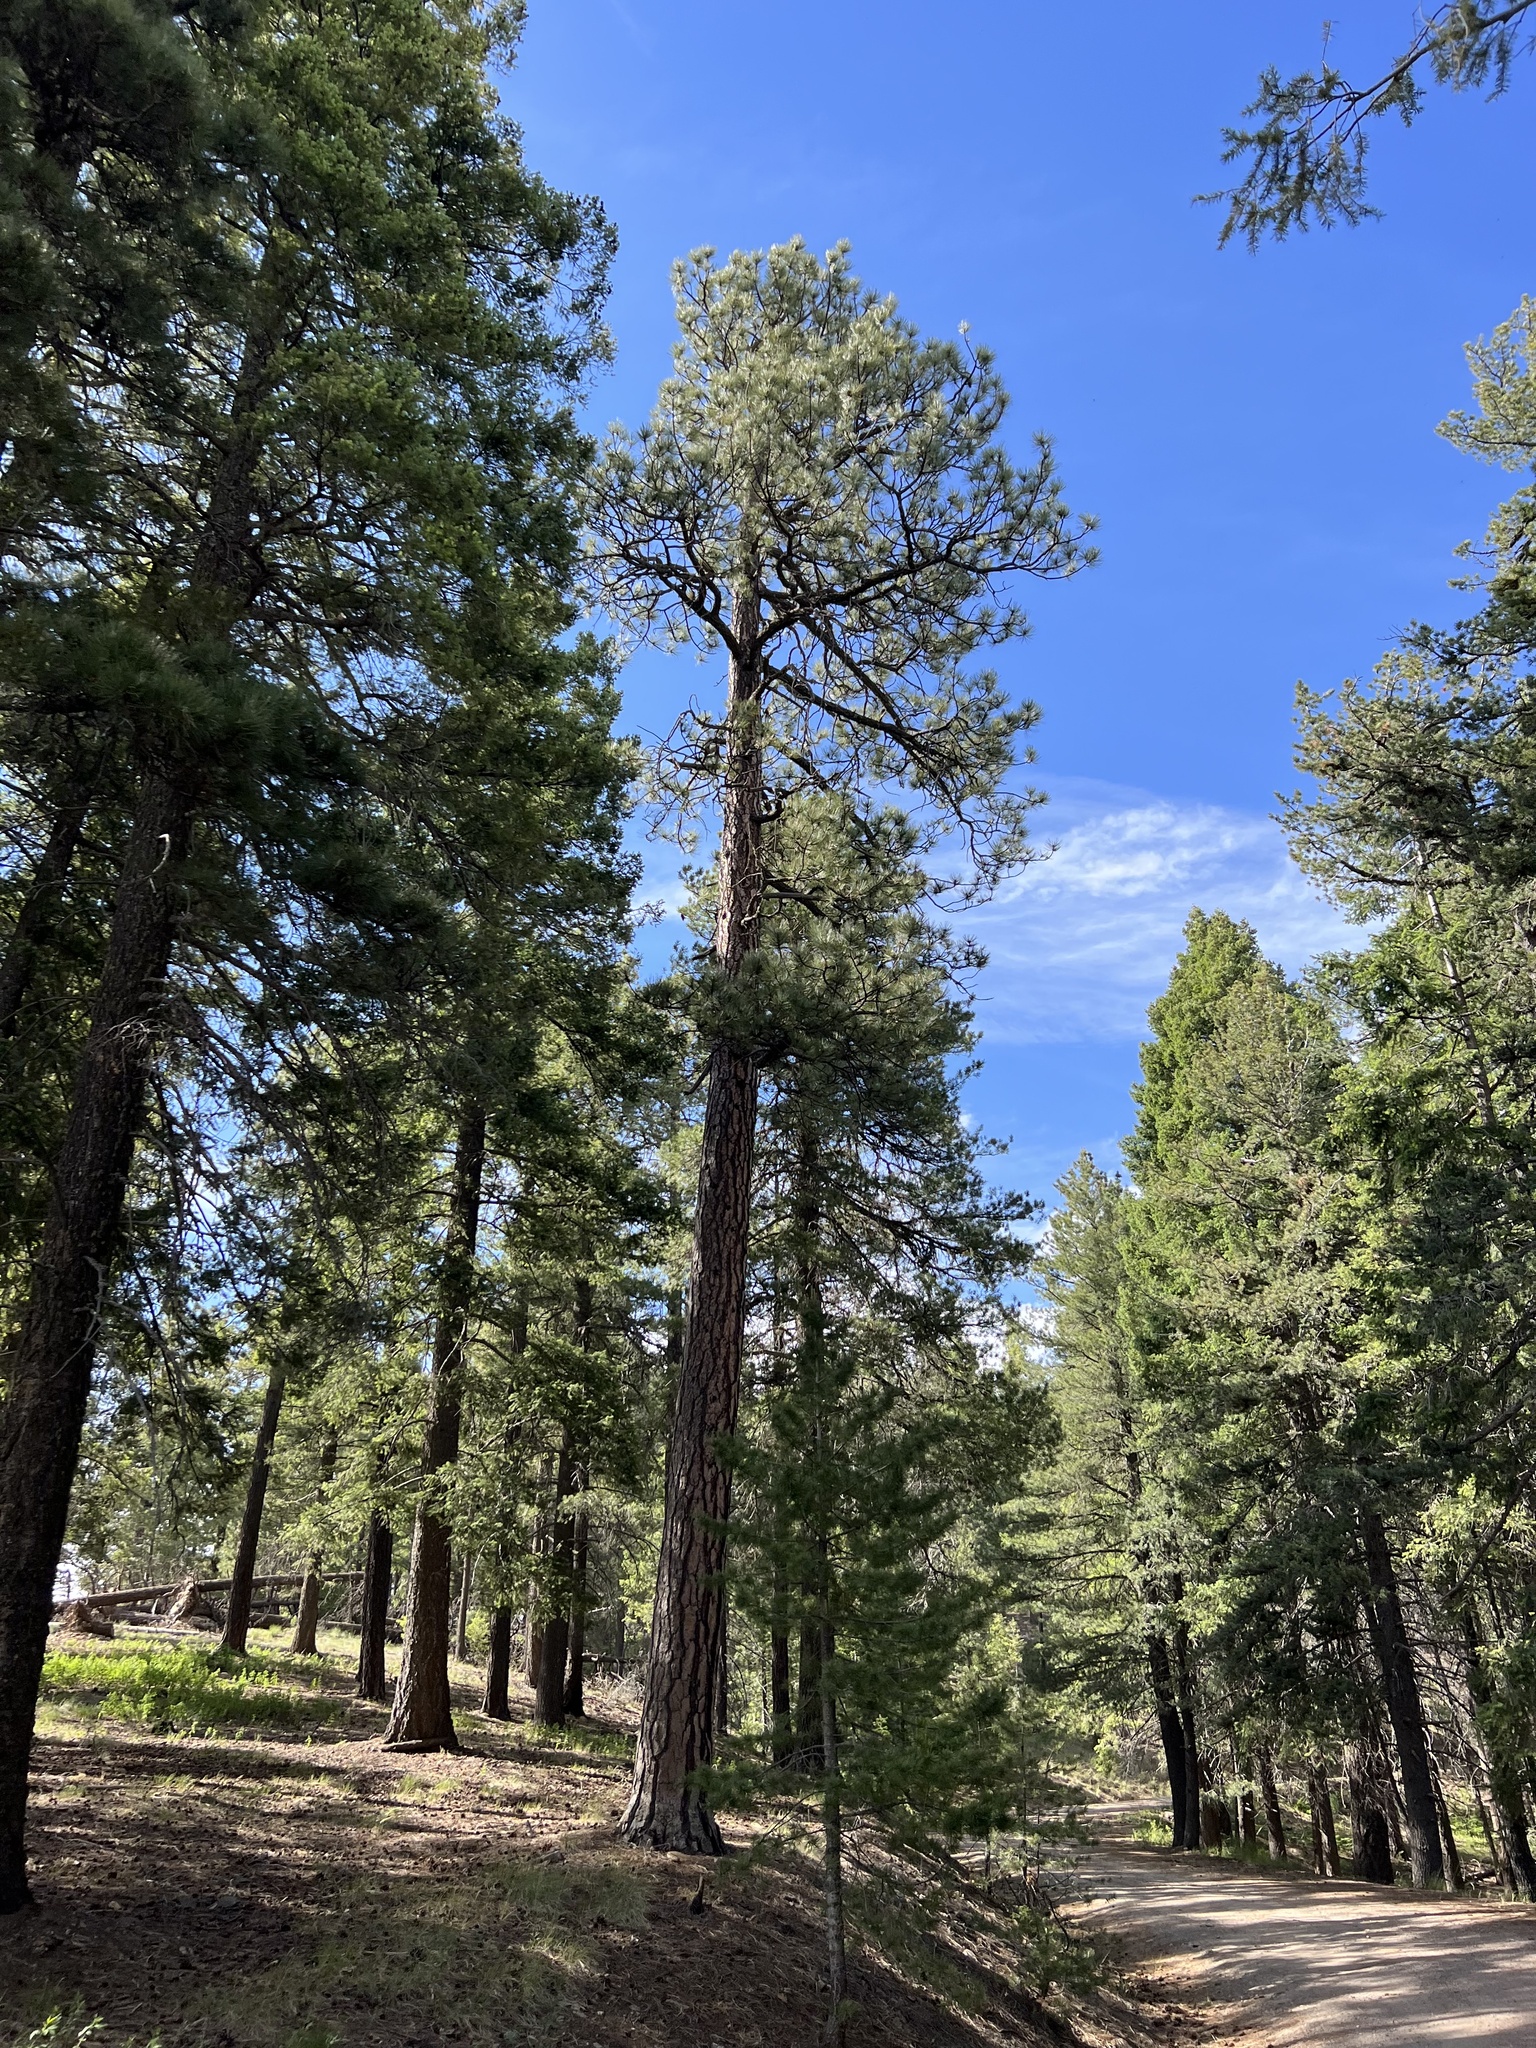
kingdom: Plantae
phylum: Tracheophyta
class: Pinopsida
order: Pinales
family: Pinaceae
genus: Pinus
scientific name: Pinus ponderosa
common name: Western yellow-pine
